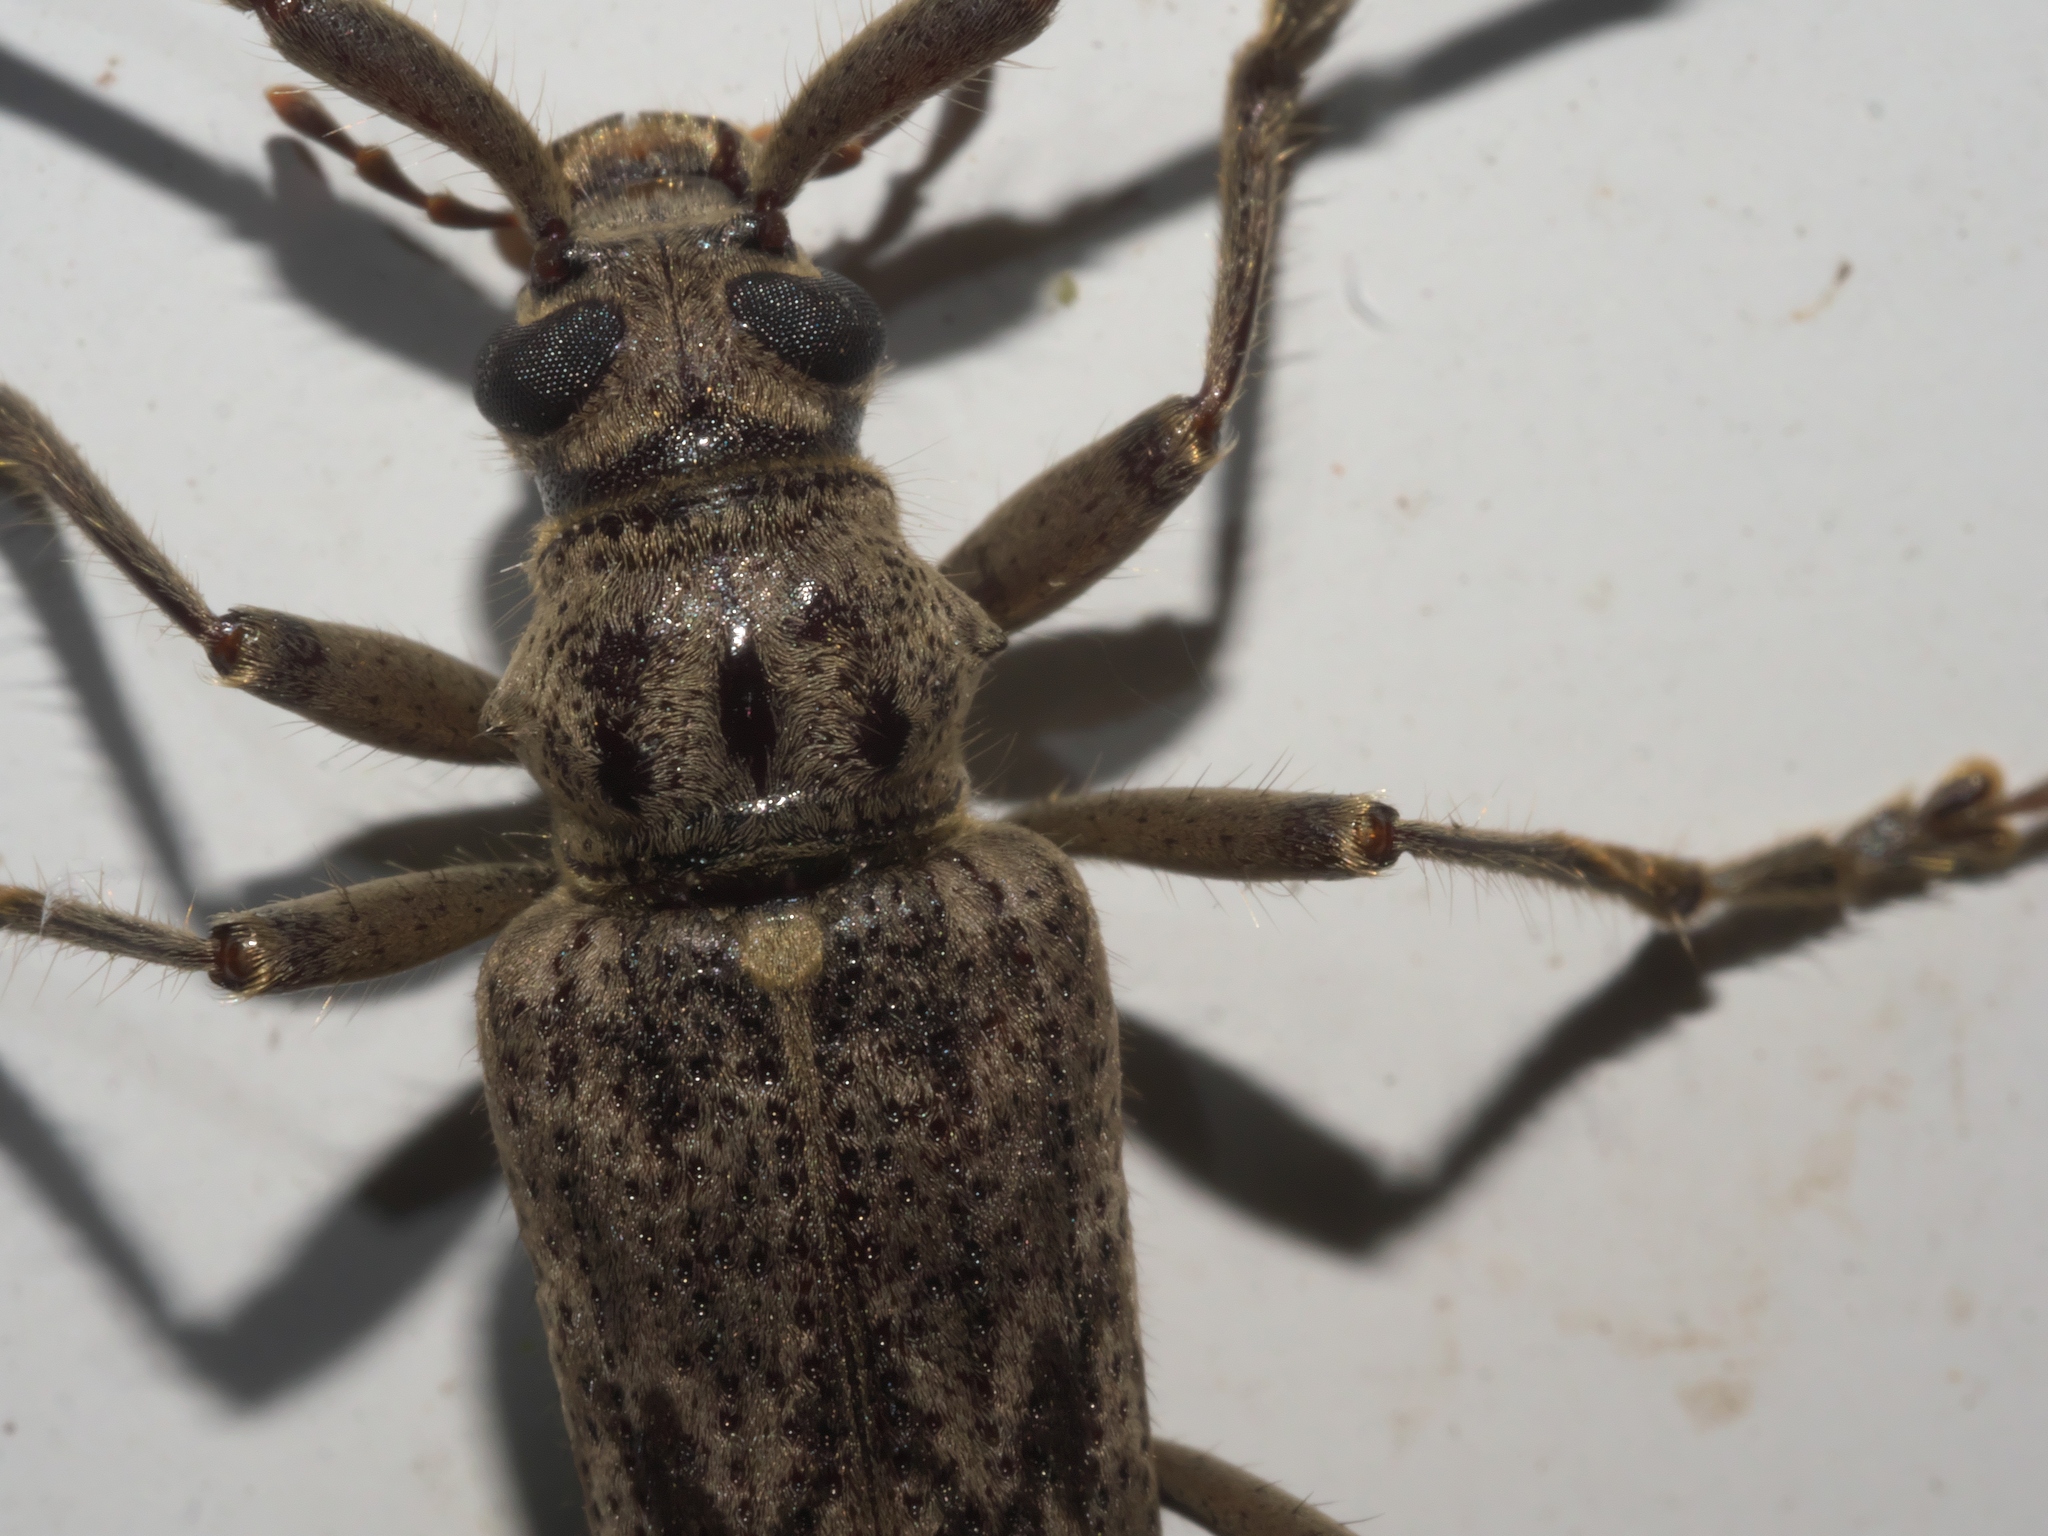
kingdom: Animalia
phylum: Arthropoda
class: Insecta
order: Coleoptera
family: Cerambycidae
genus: Elytrimitatrix
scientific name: Elytrimitatrix undata
